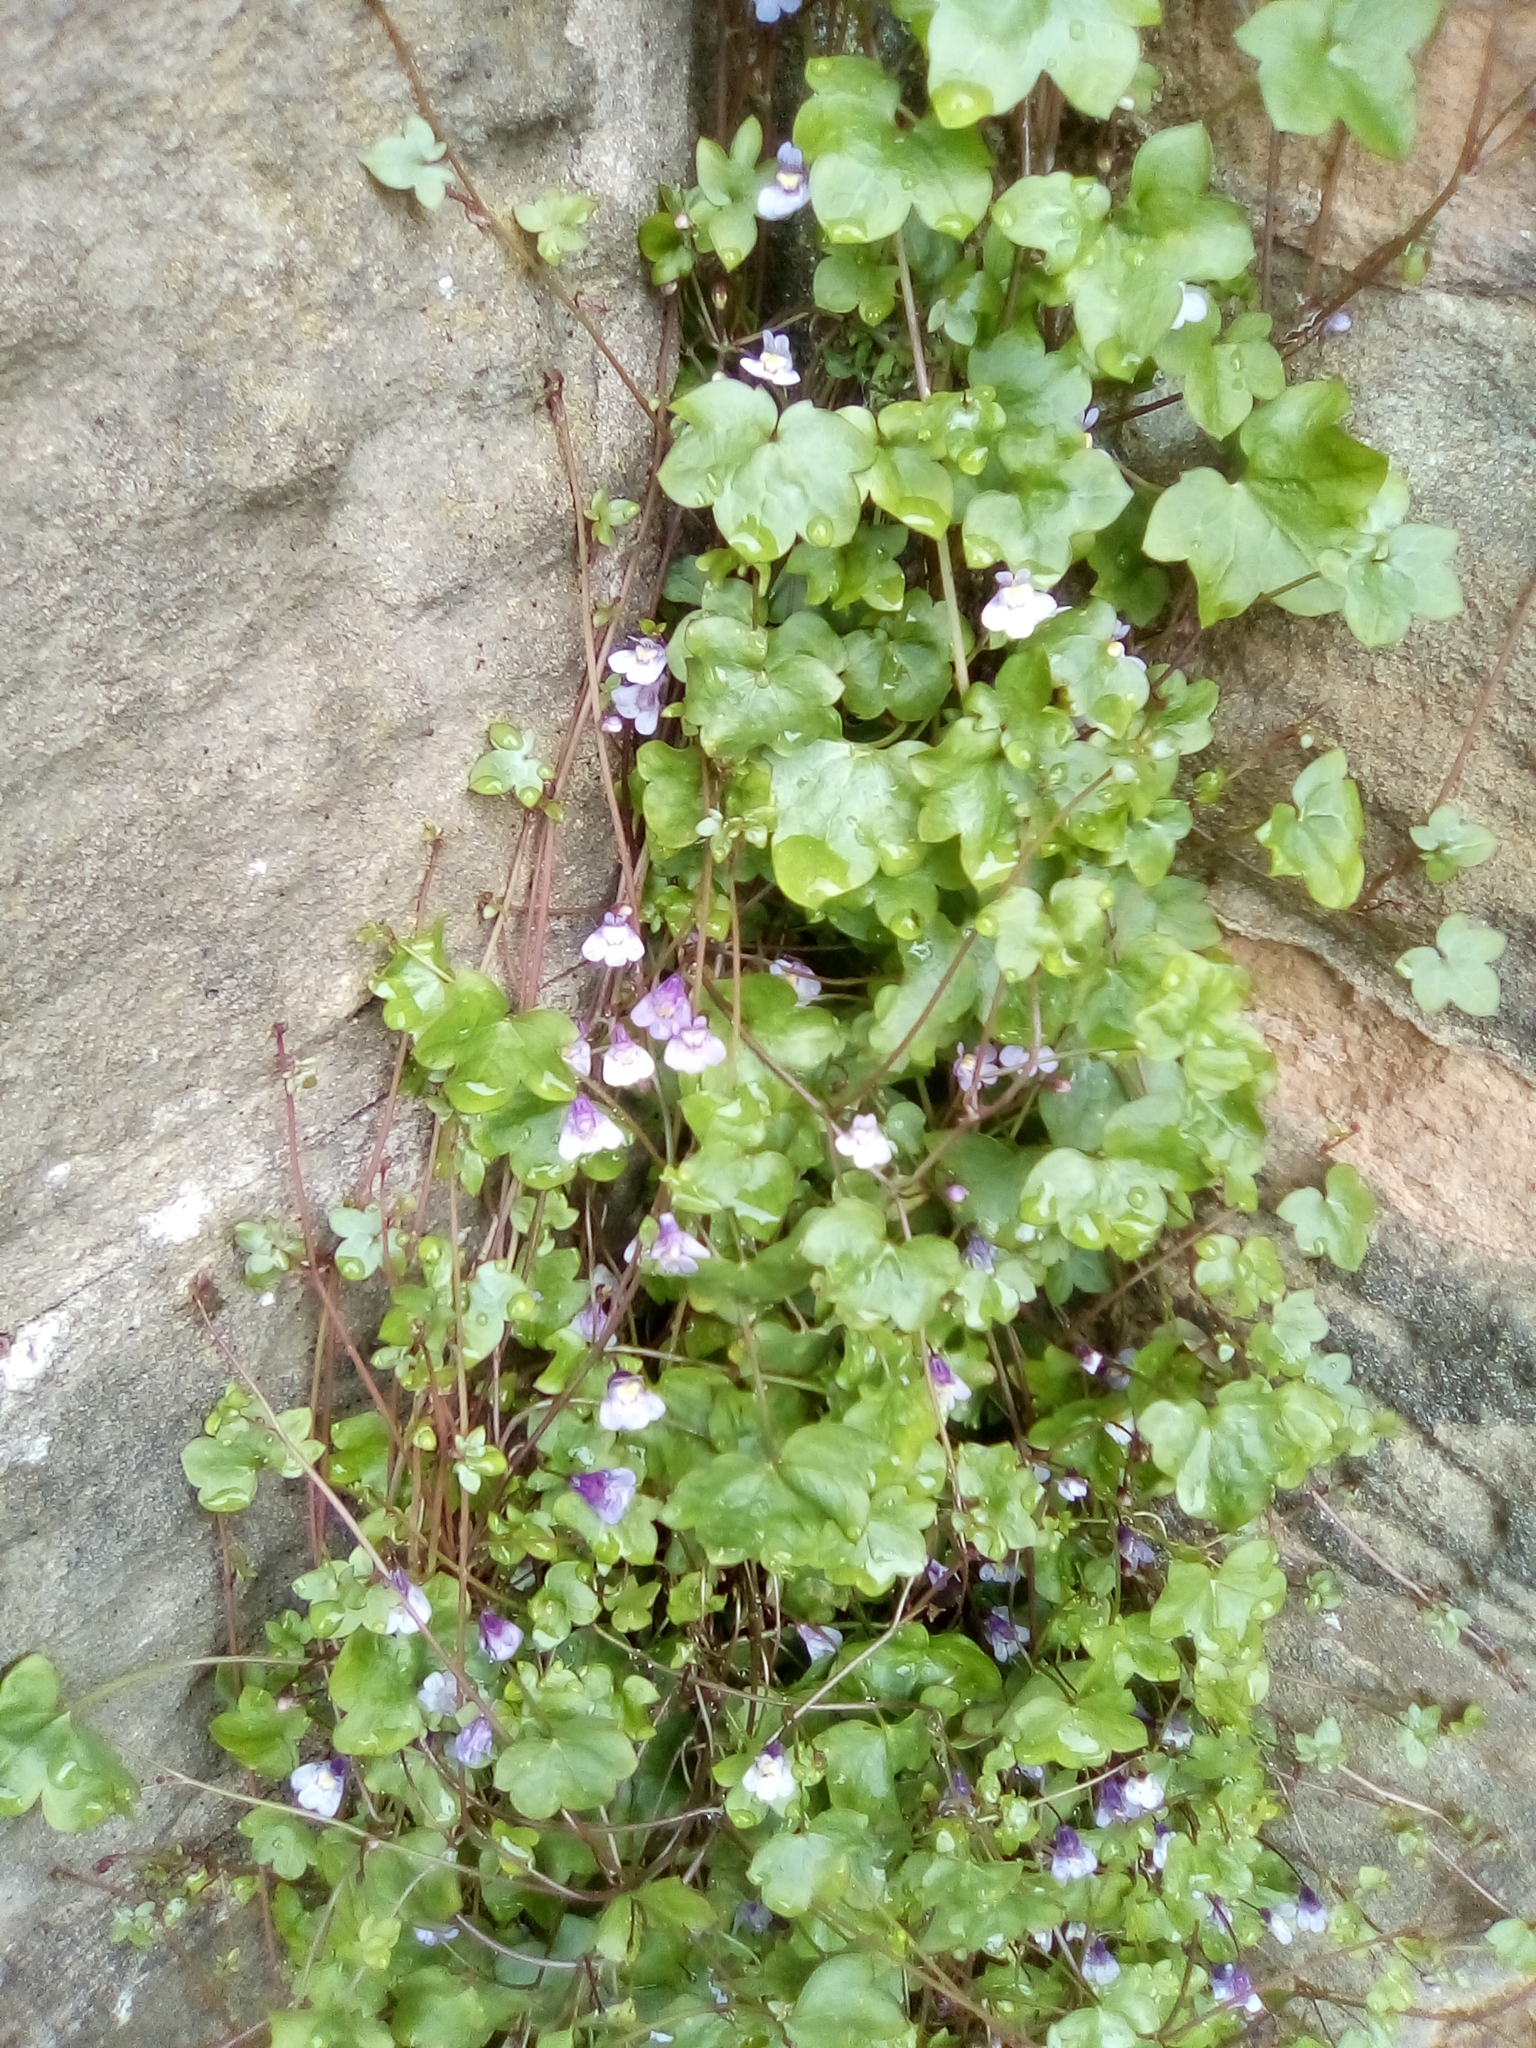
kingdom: Plantae
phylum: Tracheophyta
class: Magnoliopsida
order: Lamiales
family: Plantaginaceae
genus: Cymbalaria
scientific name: Cymbalaria muralis
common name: Ivy-leaved toadflax
